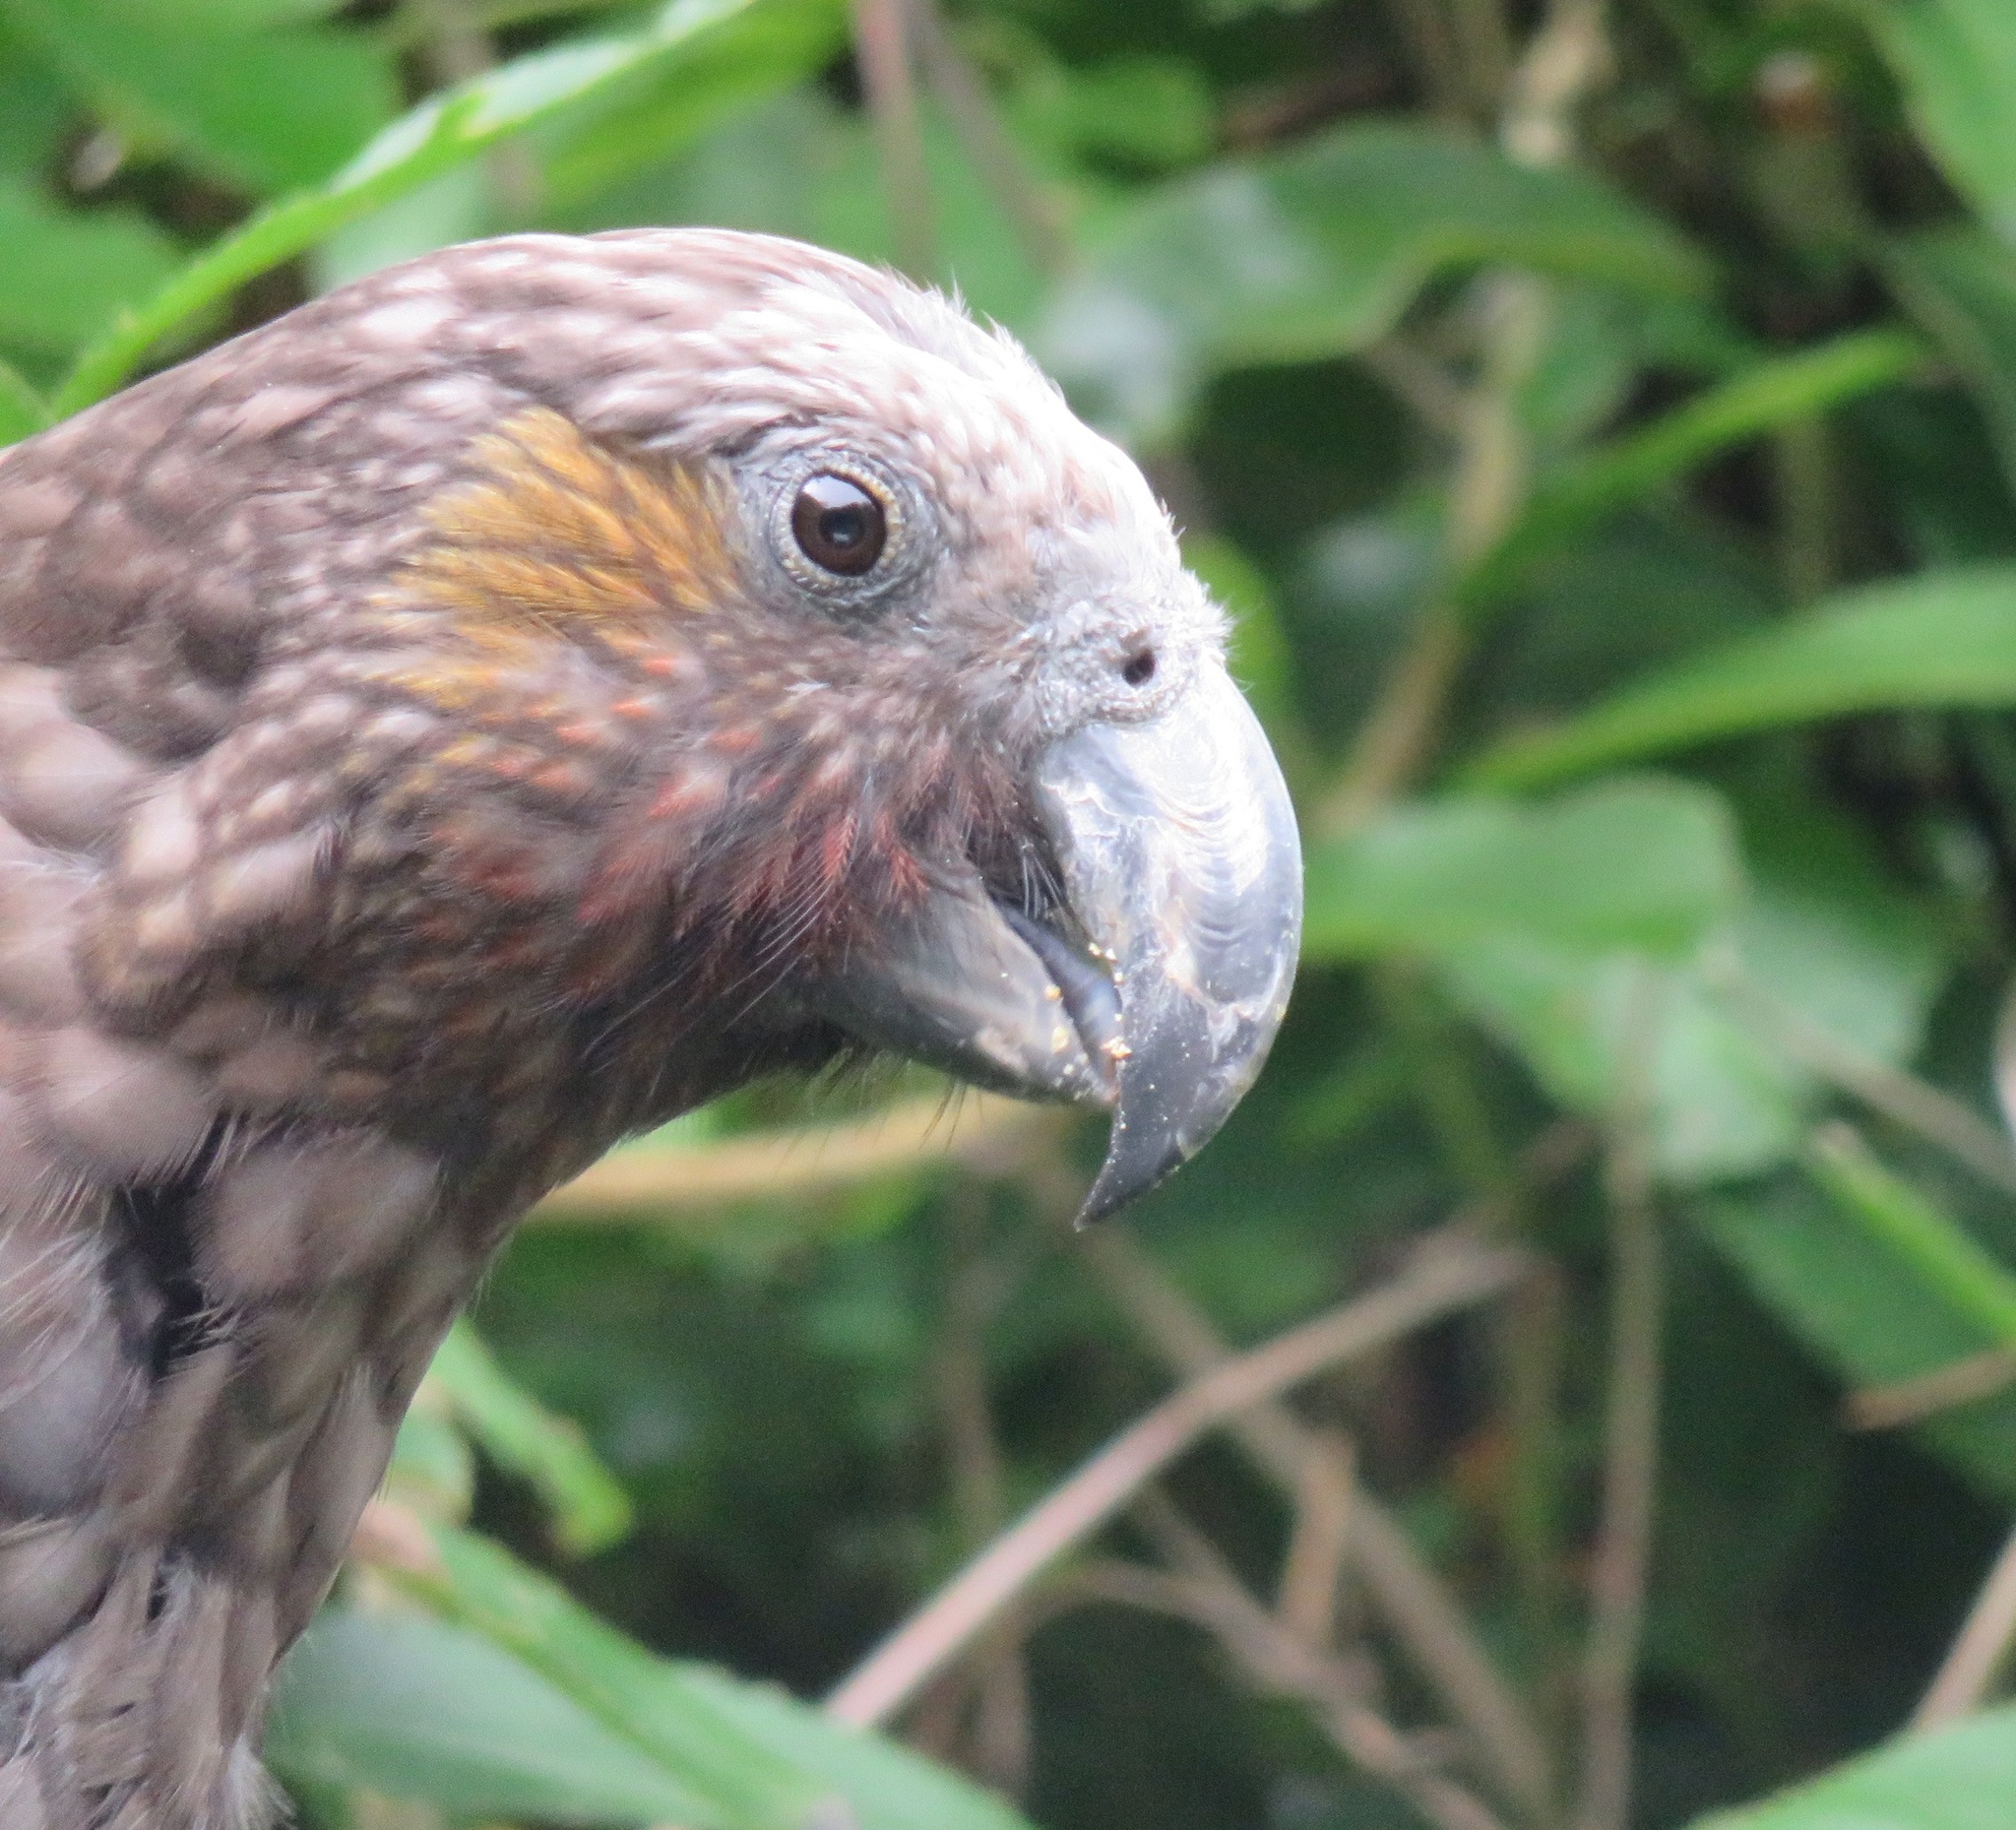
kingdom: Animalia
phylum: Chordata
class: Aves
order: Psittaciformes
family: Psittacidae
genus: Nestor
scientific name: Nestor meridionalis
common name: New zealand kaka
